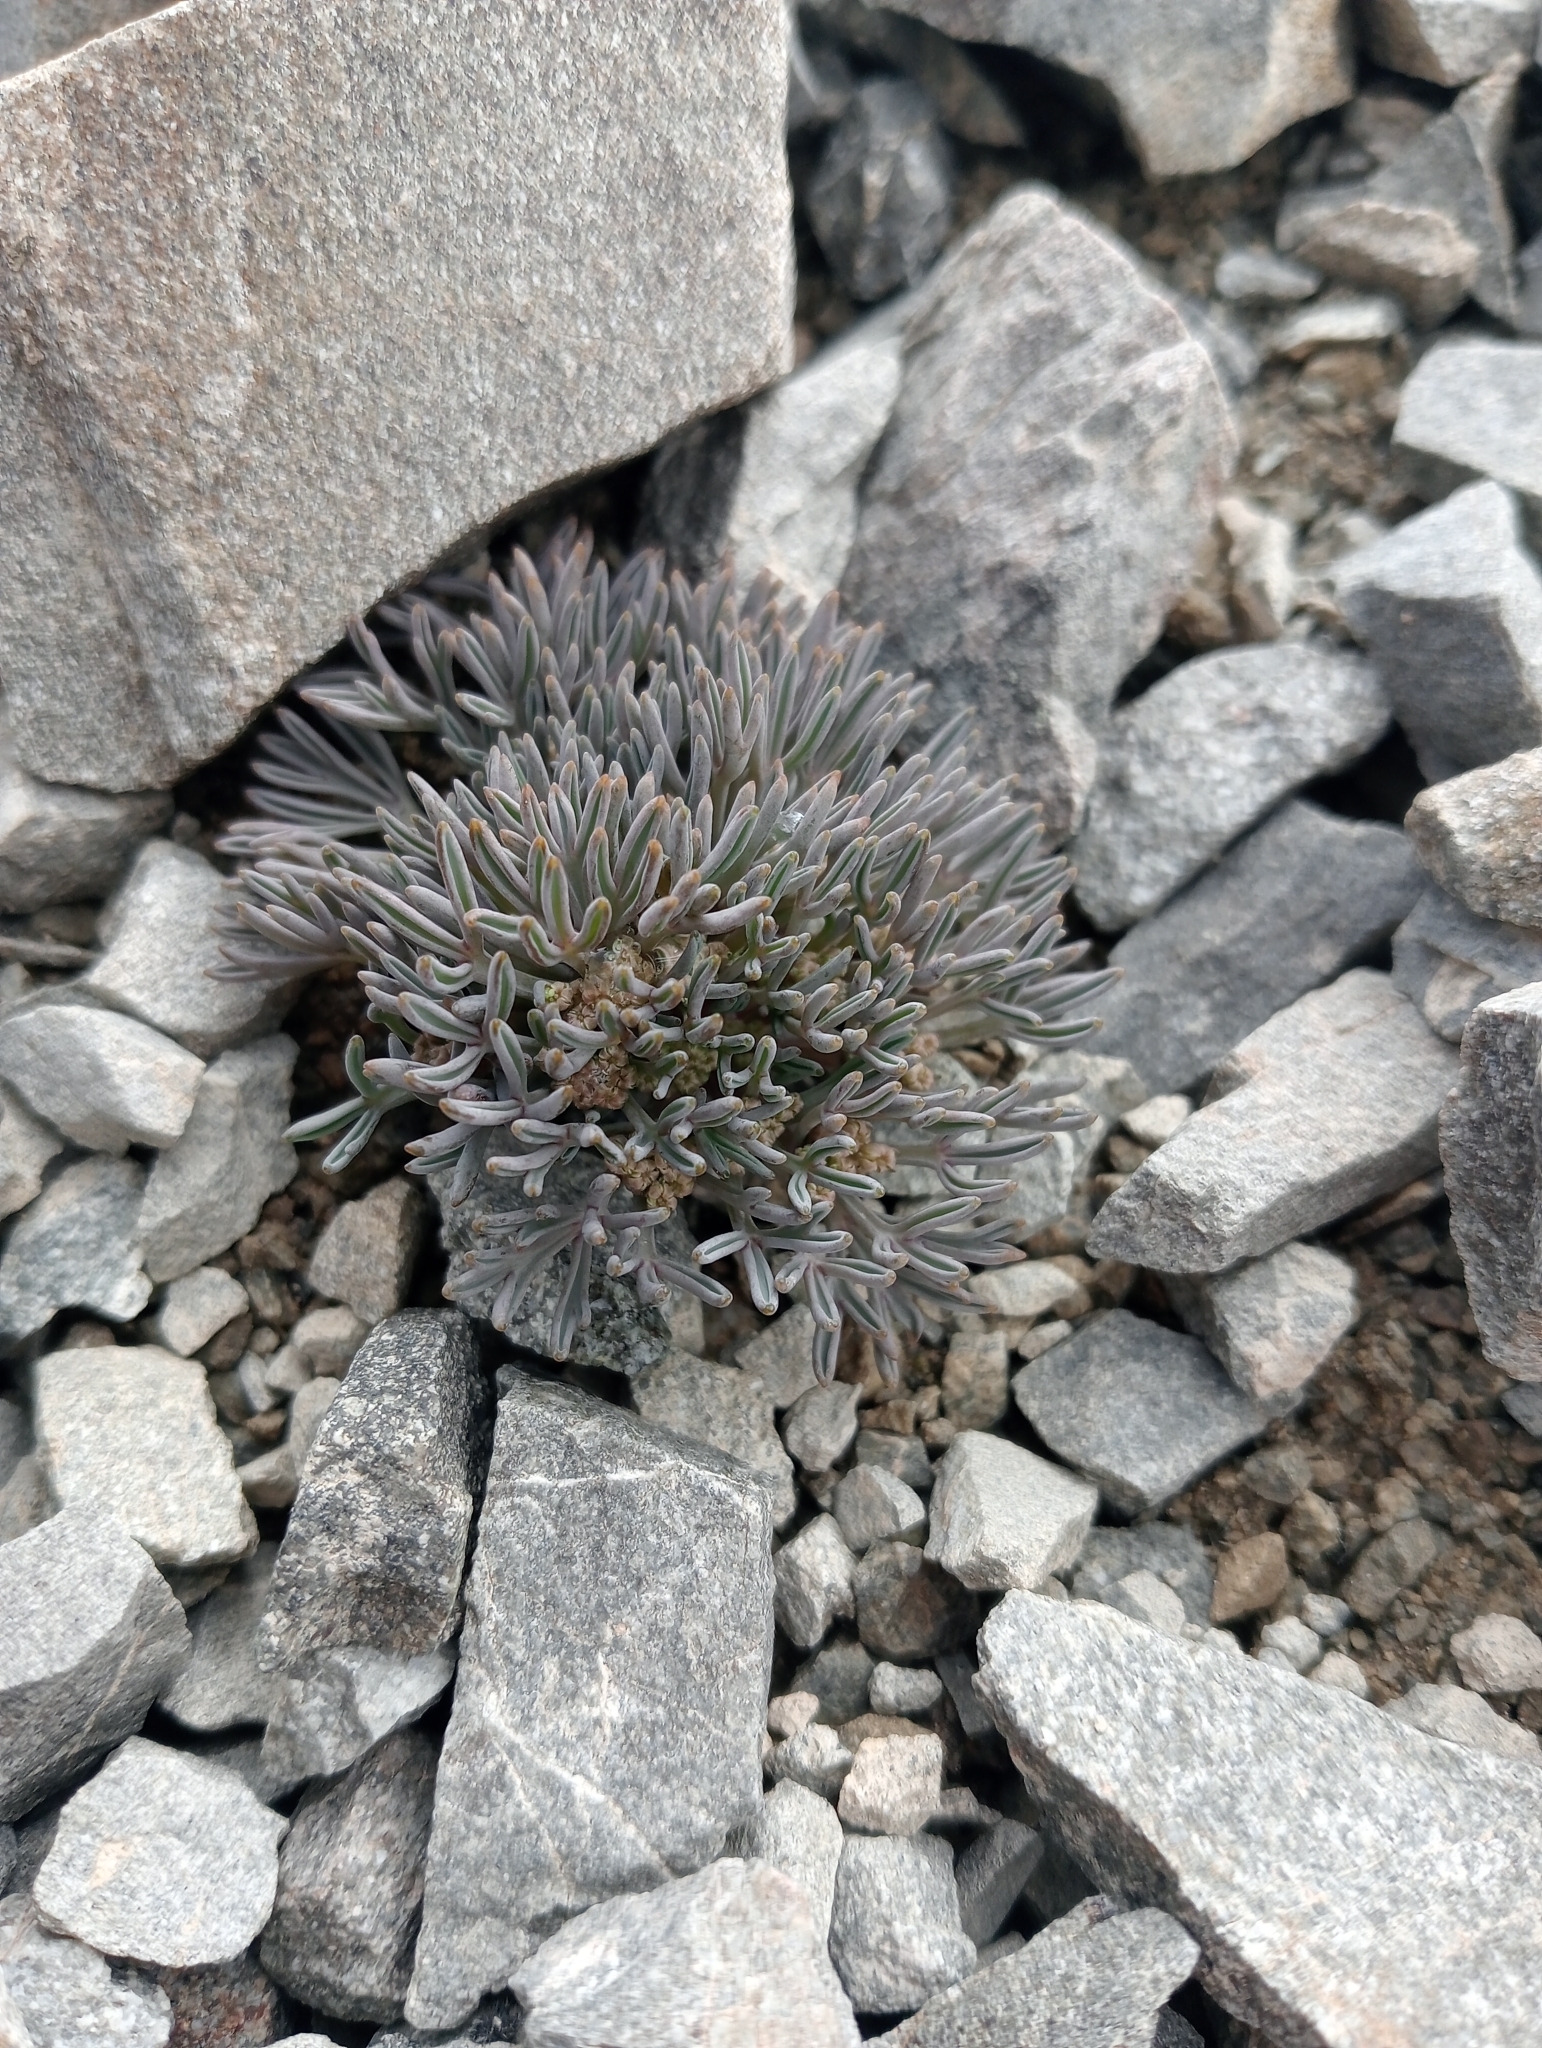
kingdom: Plantae
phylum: Tracheophyta
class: Magnoliopsida
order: Apiales
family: Apiaceae
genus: Lignocarpa
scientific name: Lignocarpa carnosula
